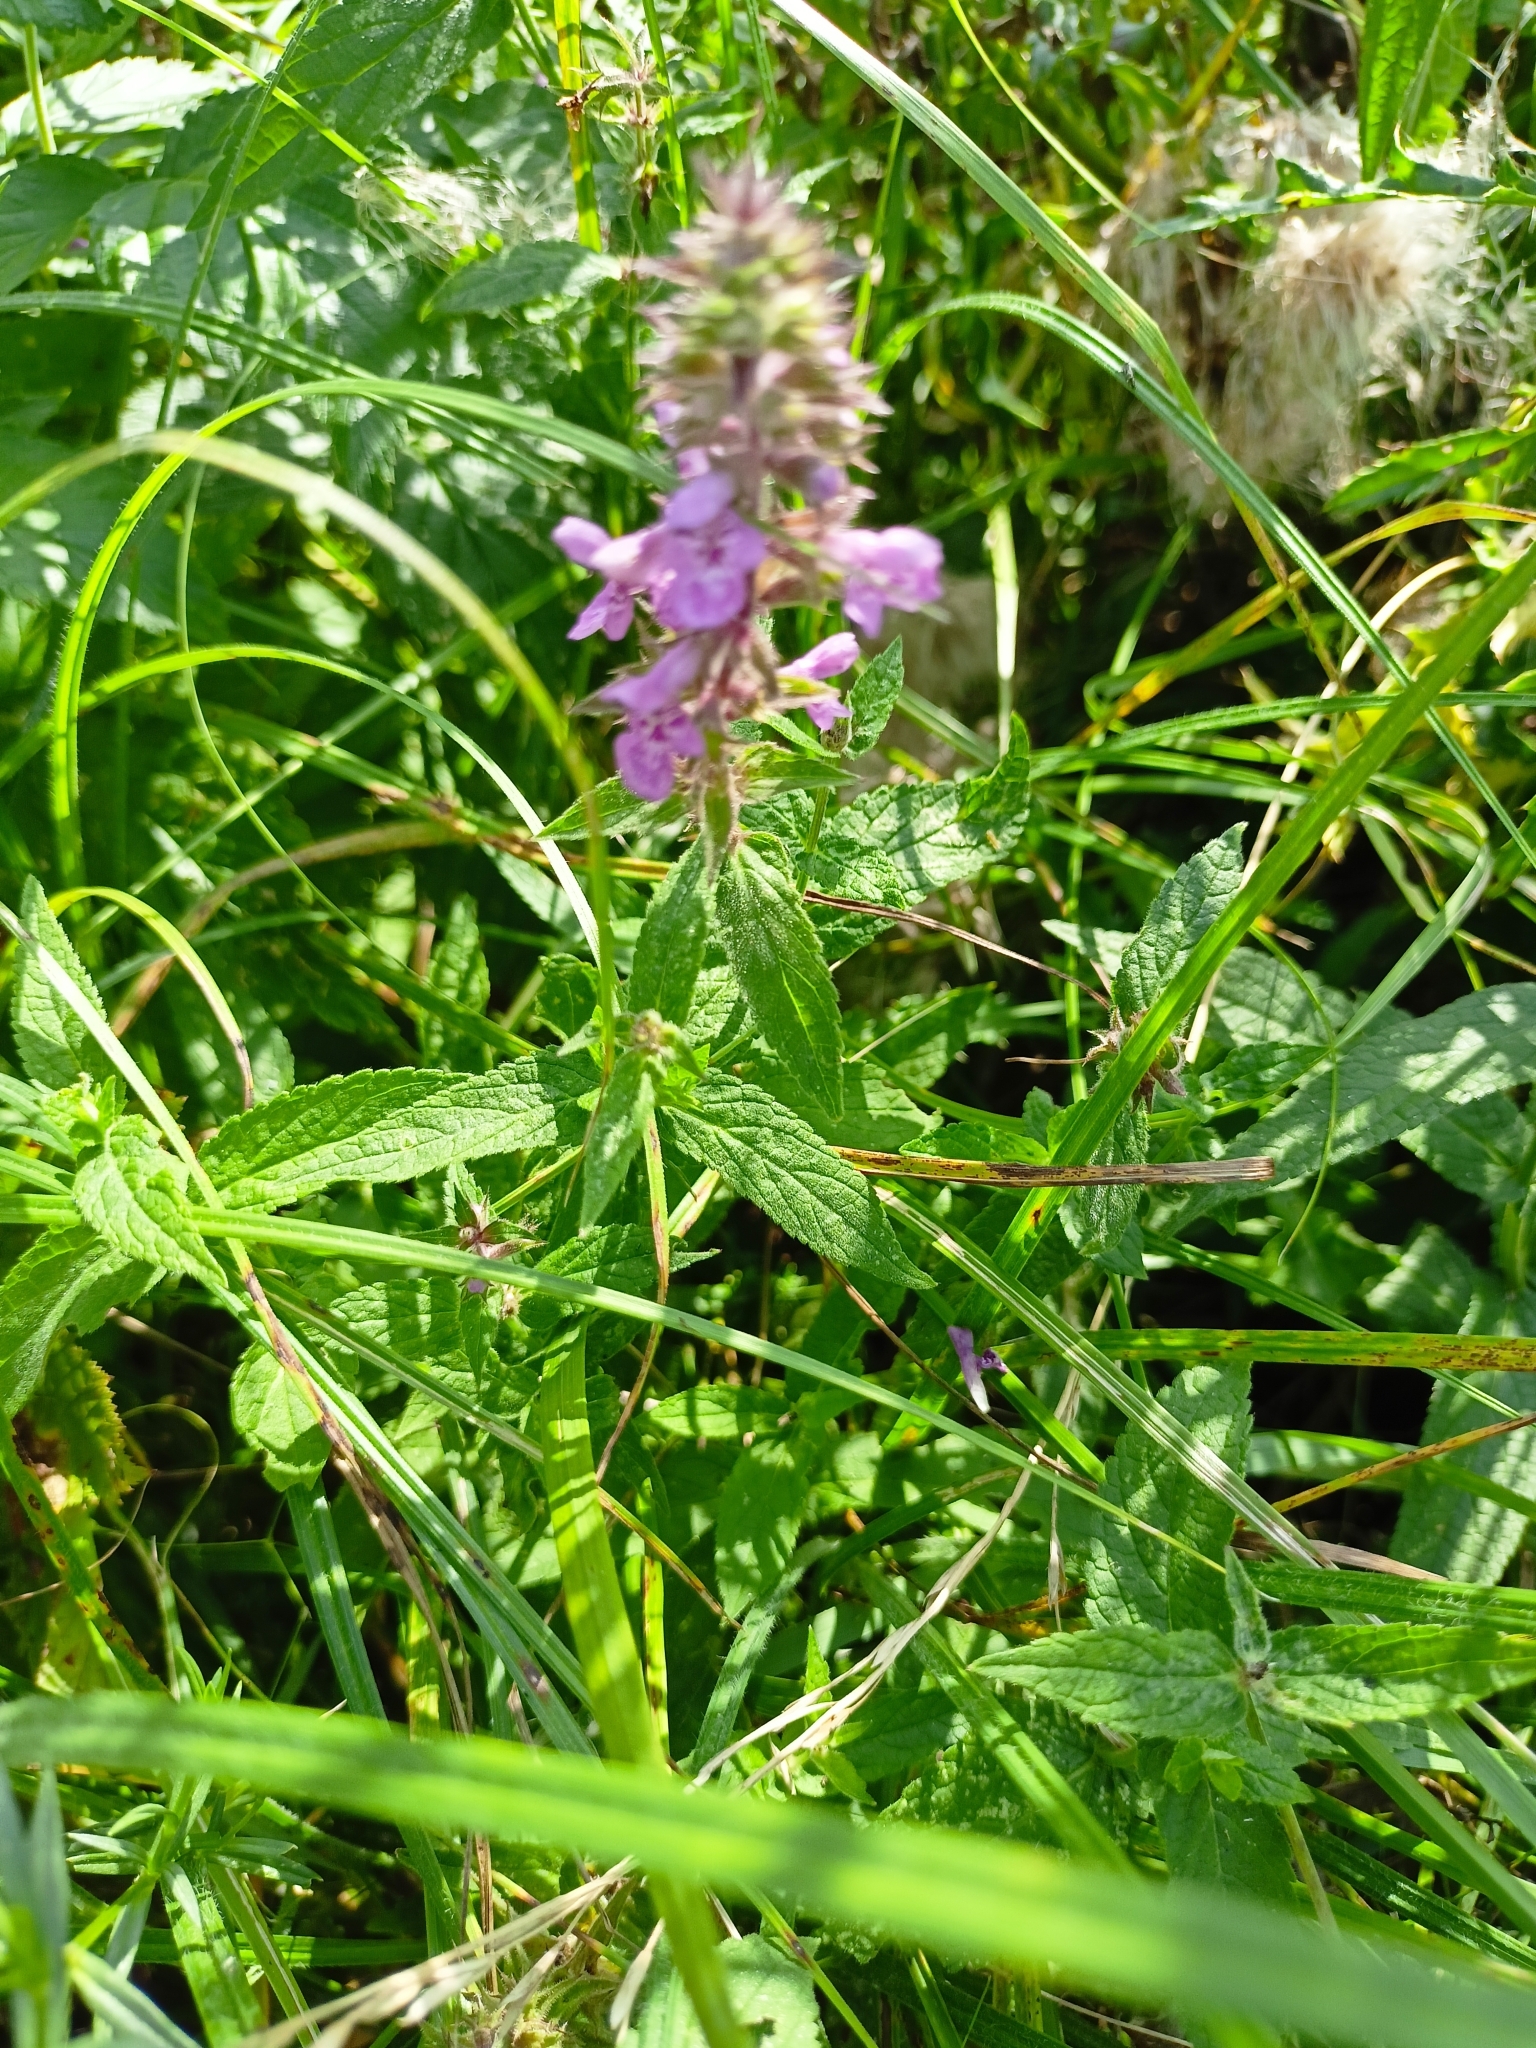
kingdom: Plantae
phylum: Tracheophyta
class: Magnoliopsida
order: Lamiales
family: Lamiaceae
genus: Stachys
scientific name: Stachys palustris
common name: Marsh woundwort
